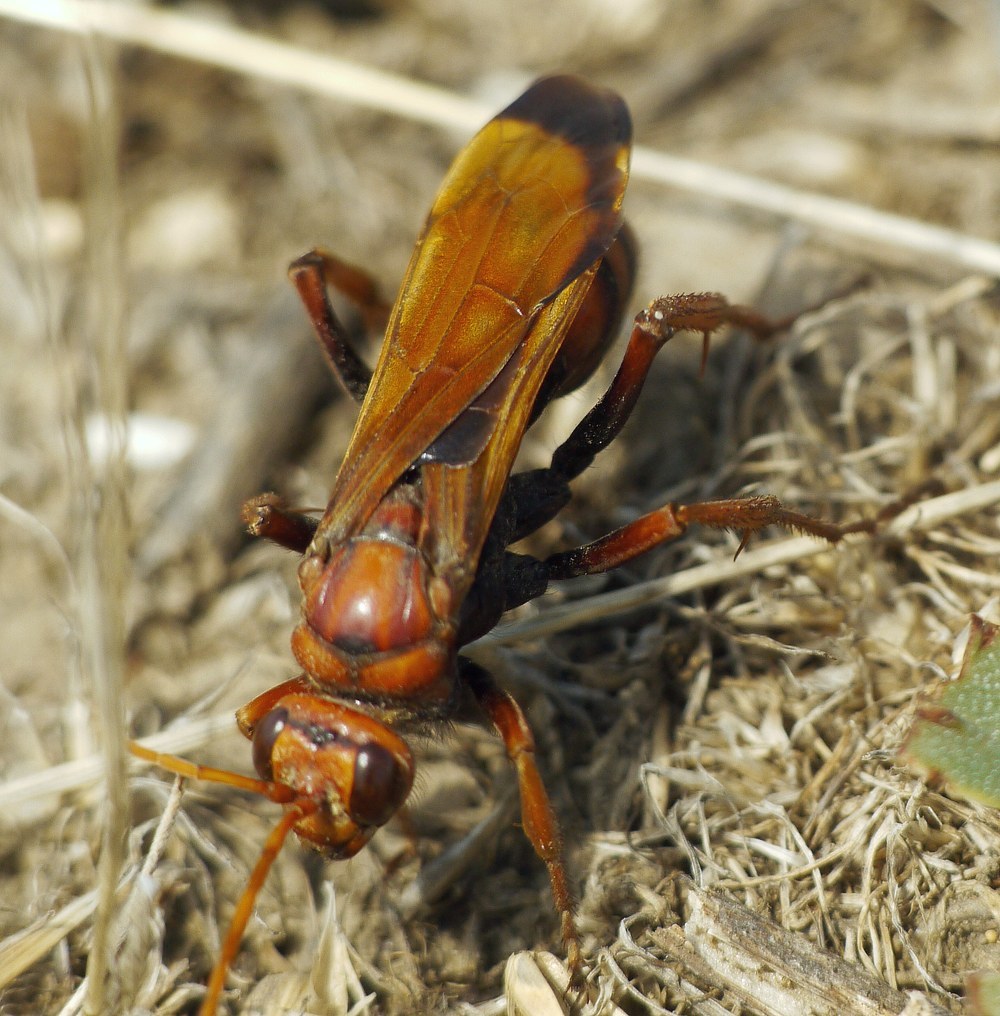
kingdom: Animalia
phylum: Arthropoda
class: Insecta
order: Hymenoptera
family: Pompilidae
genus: Cryptocheilus
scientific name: Cryptocheilus rubellus
